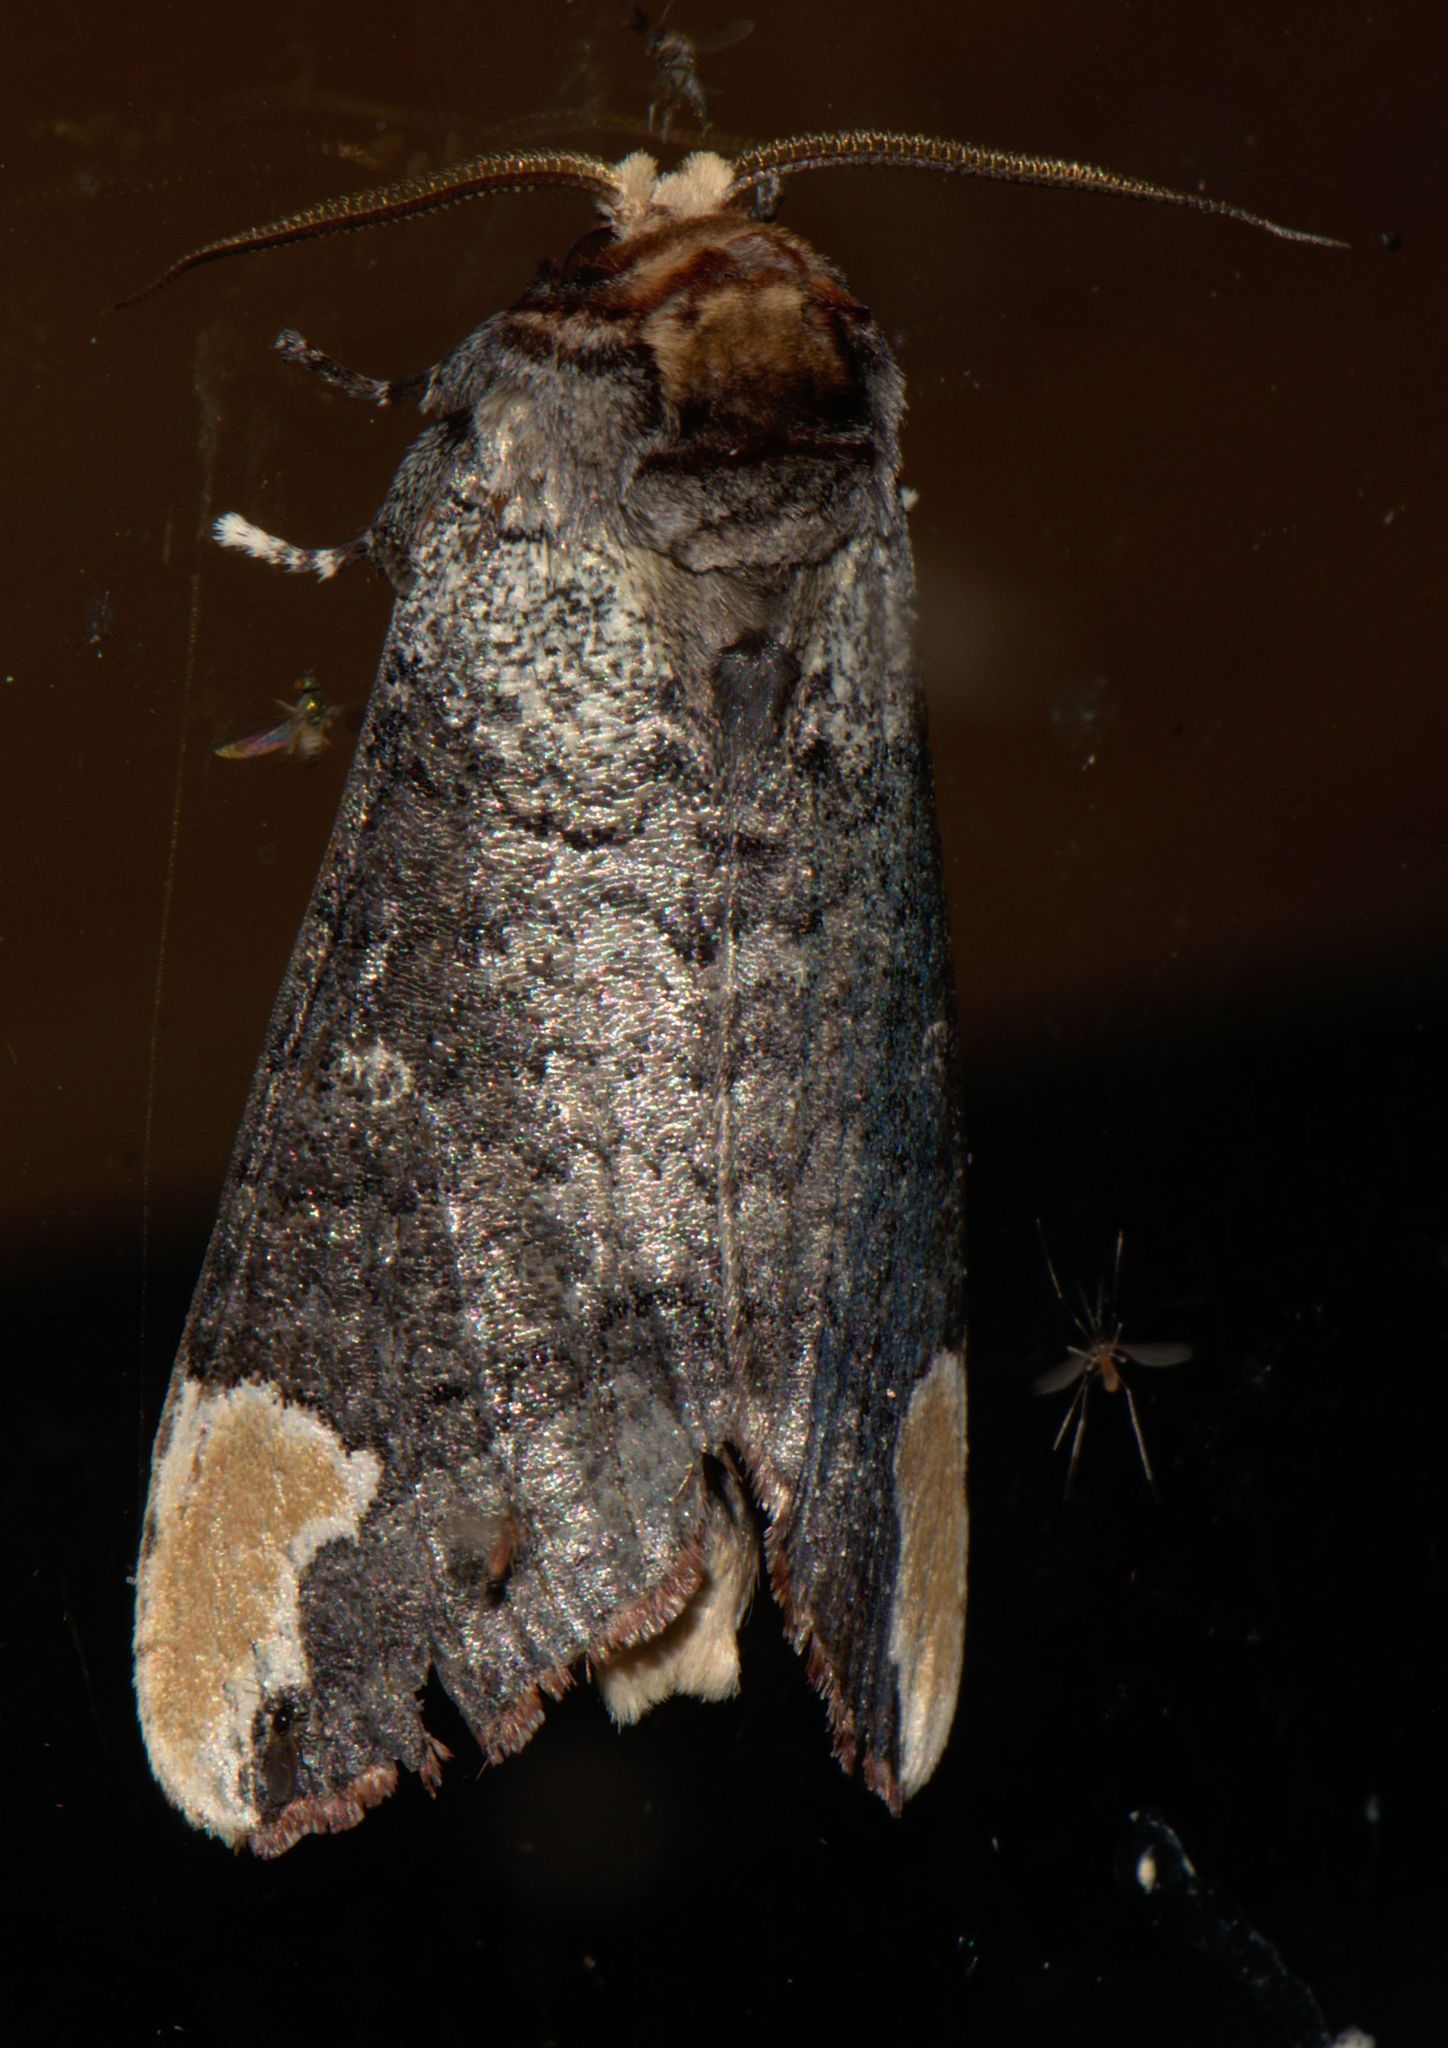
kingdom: Animalia
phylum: Arthropoda
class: Insecta
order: Lepidoptera
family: Notodontidae
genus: Phalera
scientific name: Phalera goniophora
